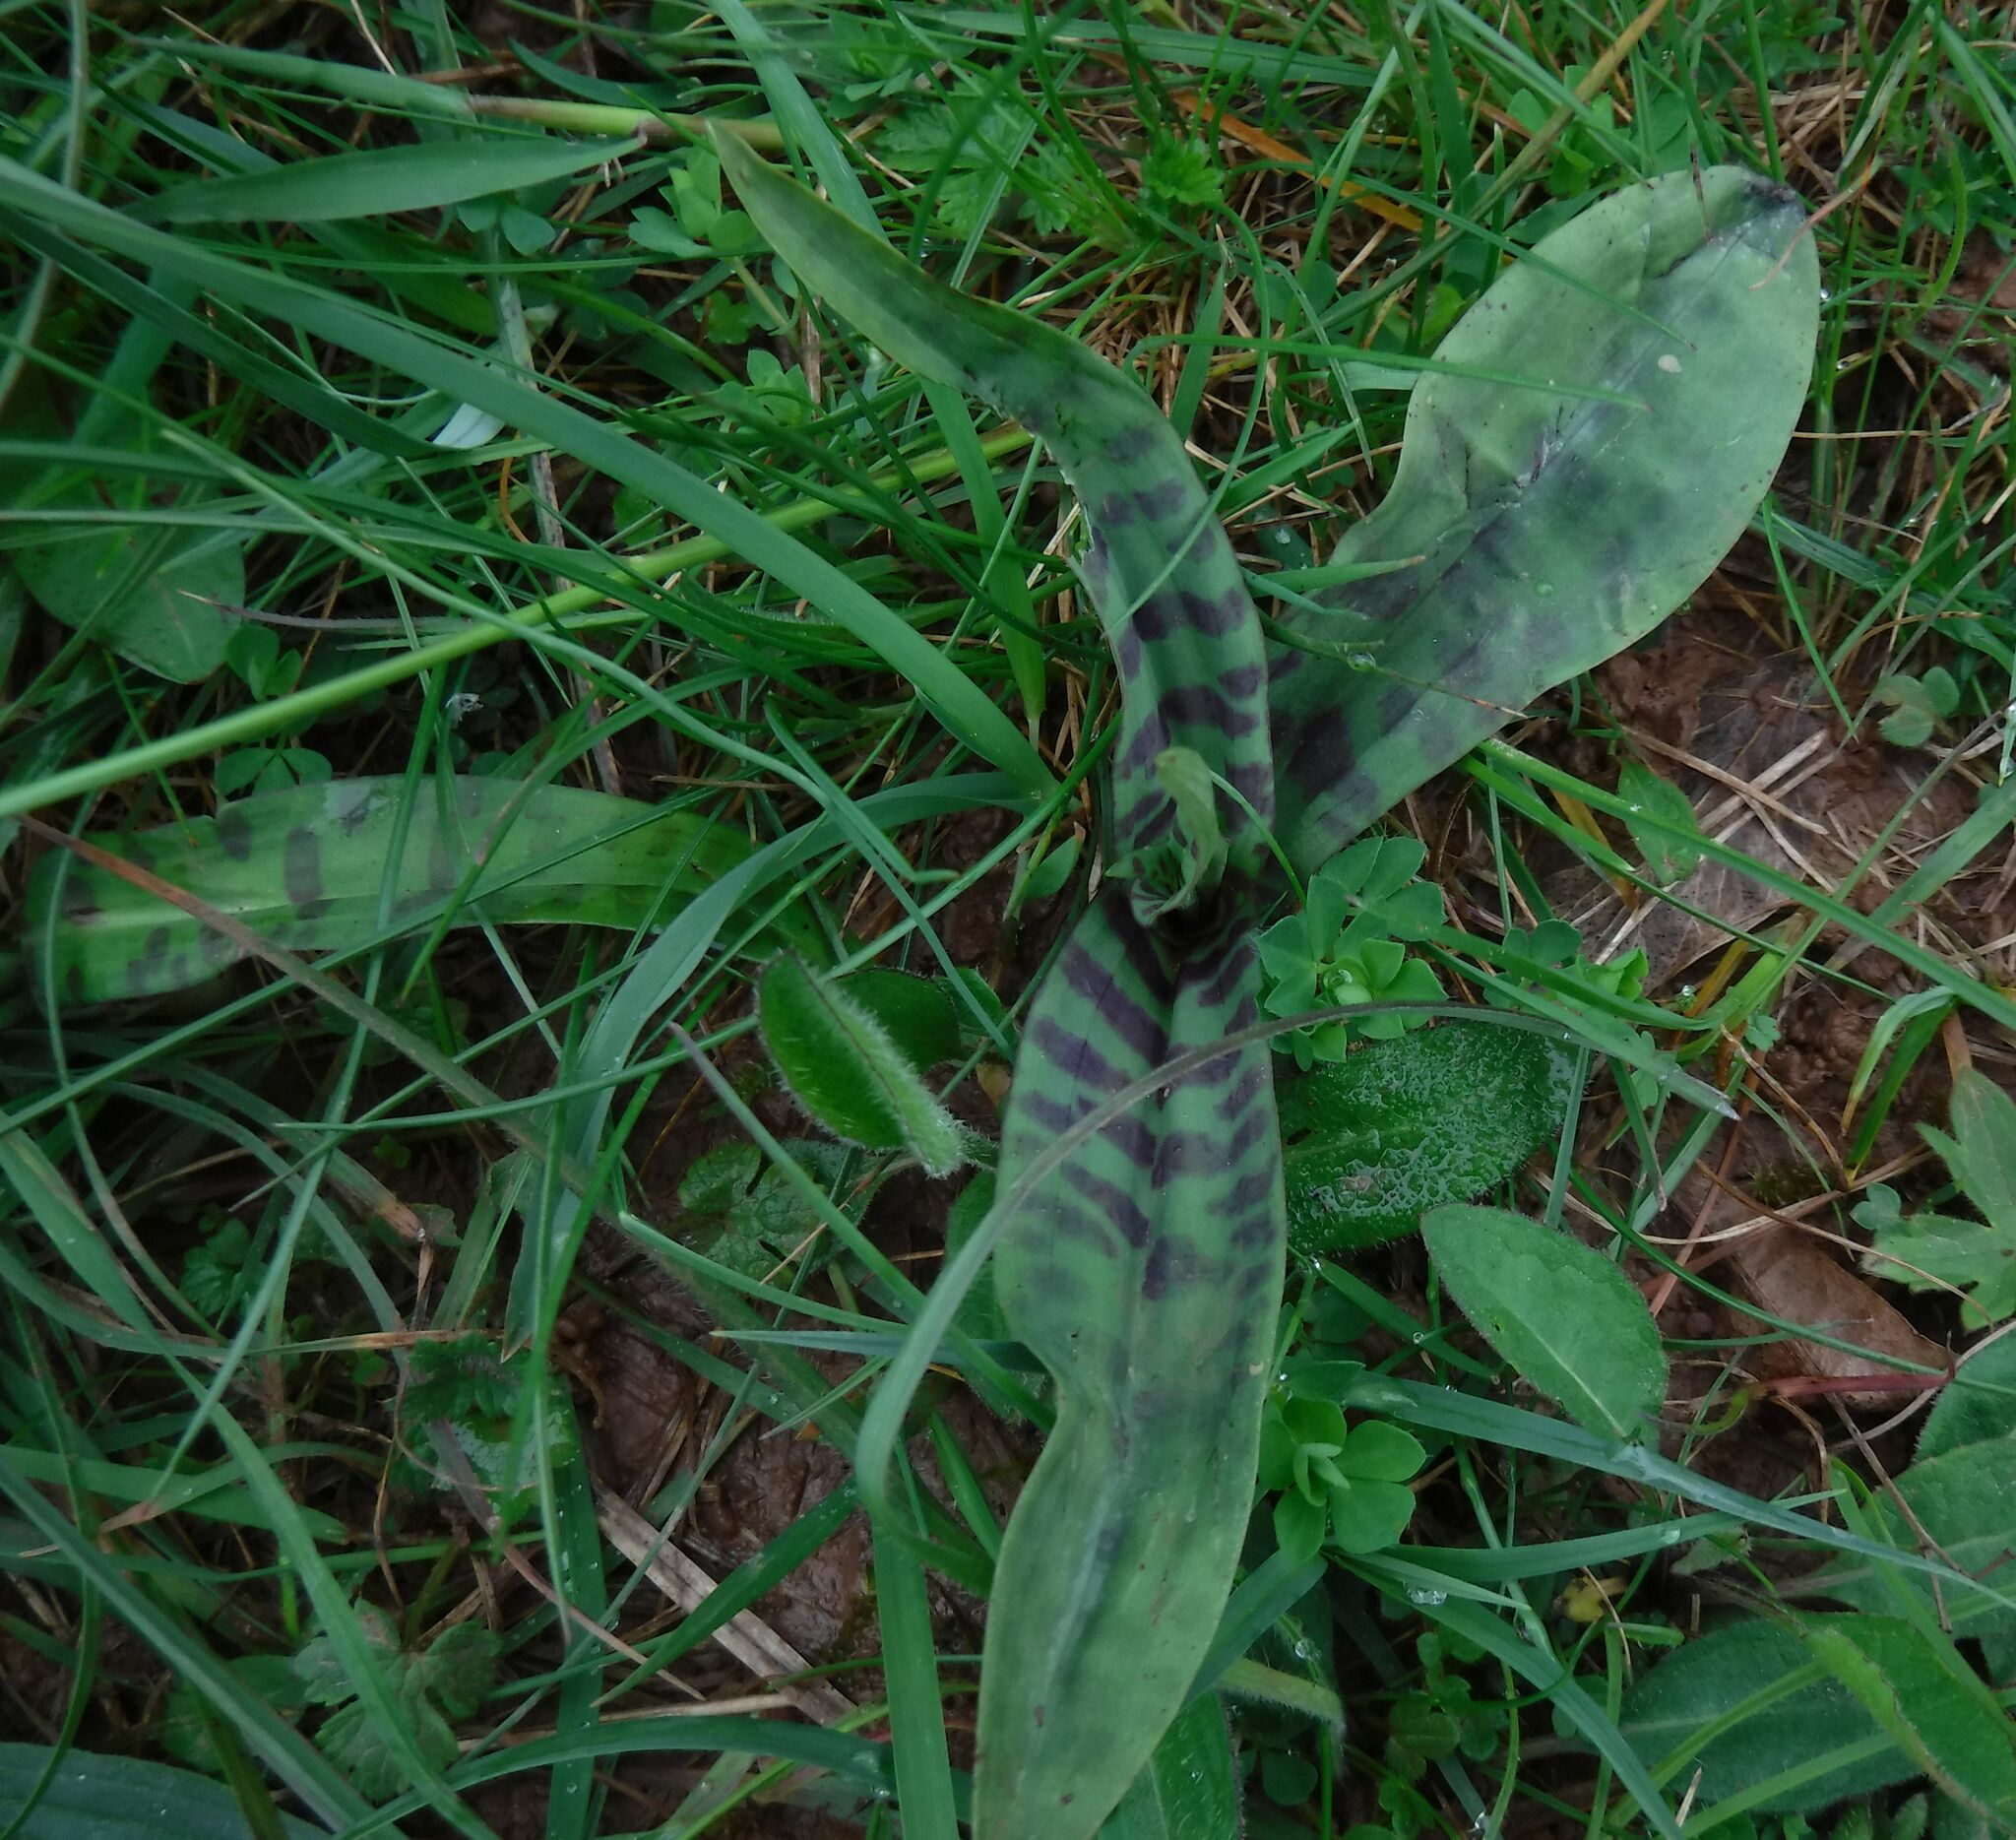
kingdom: Plantae
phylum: Tracheophyta
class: Liliopsida
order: Asparagales
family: Orchidaceae
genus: Dactylorhiza
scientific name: Dactylorhiza maculata
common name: Heath spotted-orchid
